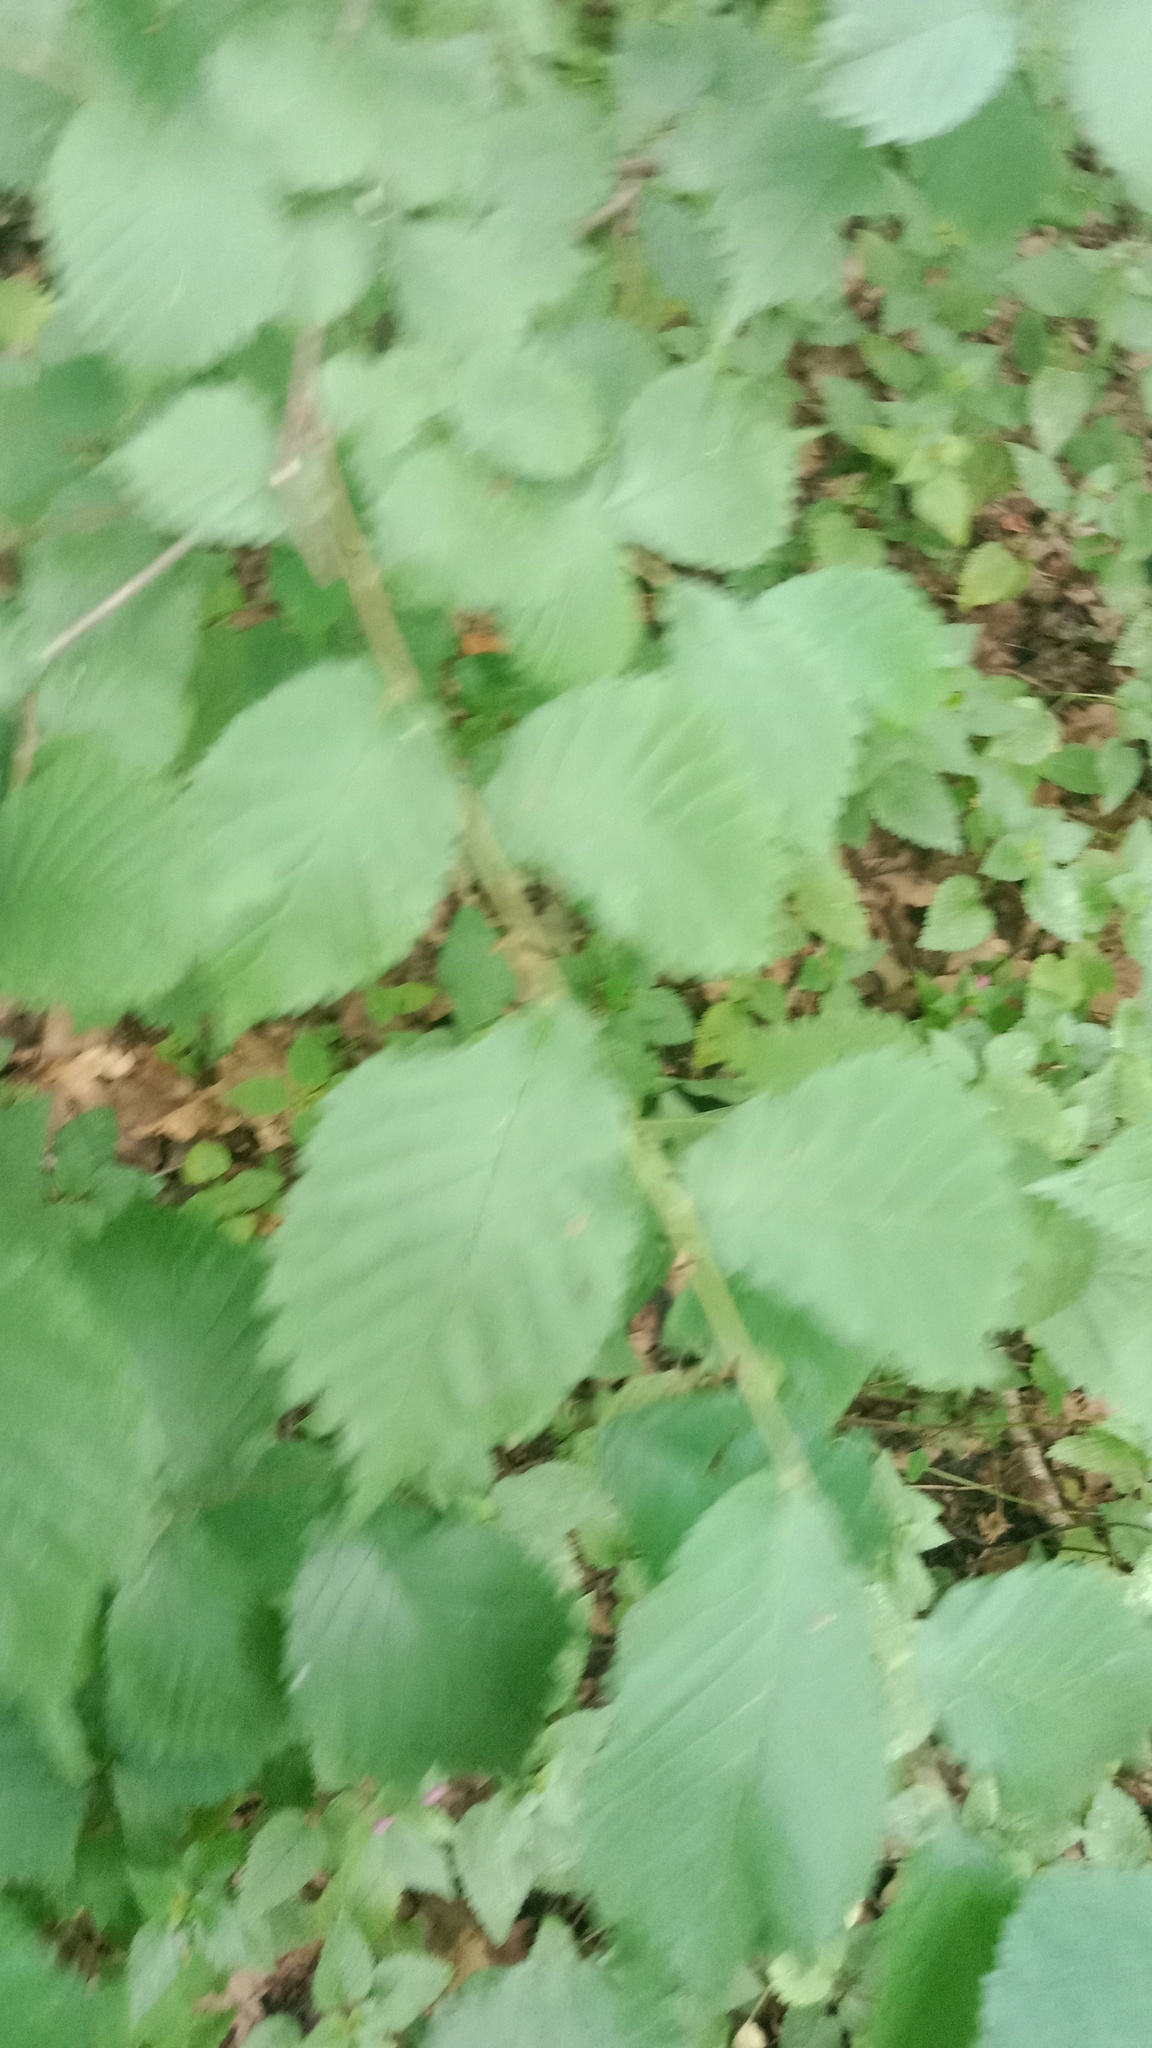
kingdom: Plantae
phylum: Tracheophyta
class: Magnoliopsida
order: Rosales
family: Ulmaceae
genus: Ulmus
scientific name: Ulmus glabra
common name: Wych elm
